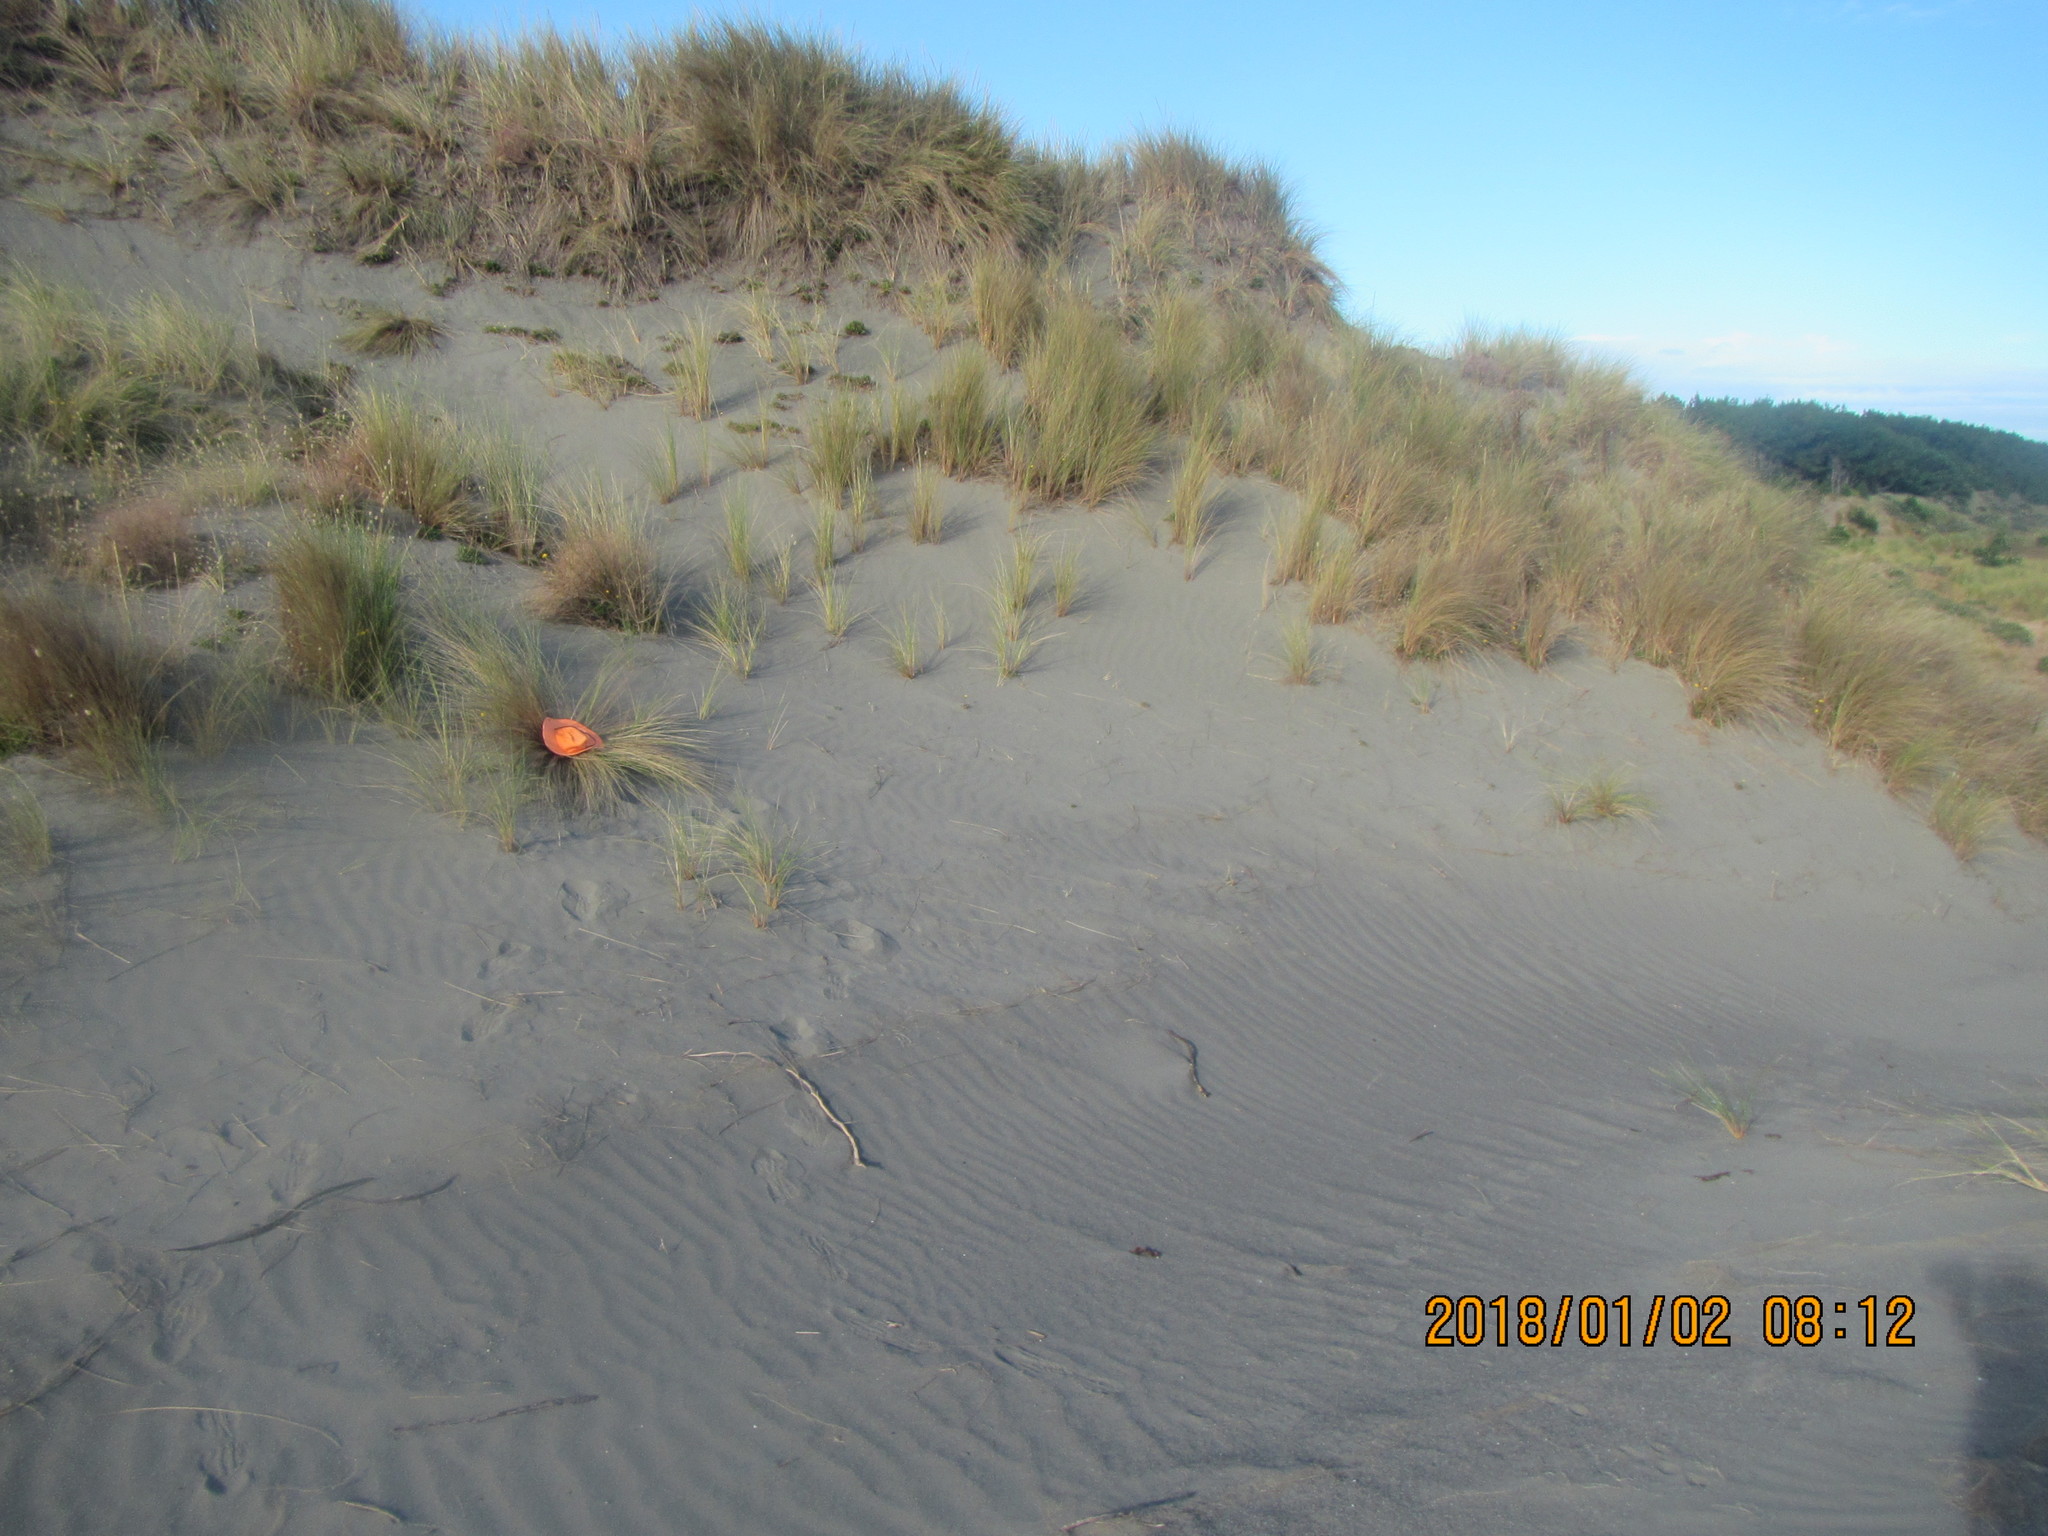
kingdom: Animalia
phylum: Mollusca
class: Gastropoda
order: Stylommatophora
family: Geomitridae
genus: Xeroplexa
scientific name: Xeroplexa intersecta
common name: Wrinkled snail
